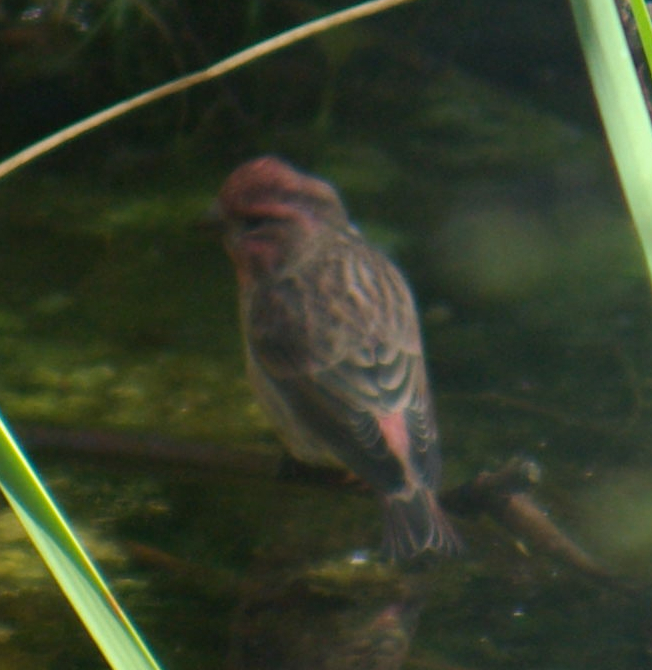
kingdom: Animalia
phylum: Chordata
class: Aves
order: Passeriformes
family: Fringillidae
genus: Haemorhous
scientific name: Haemorhous purpureus
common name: Purple finch
